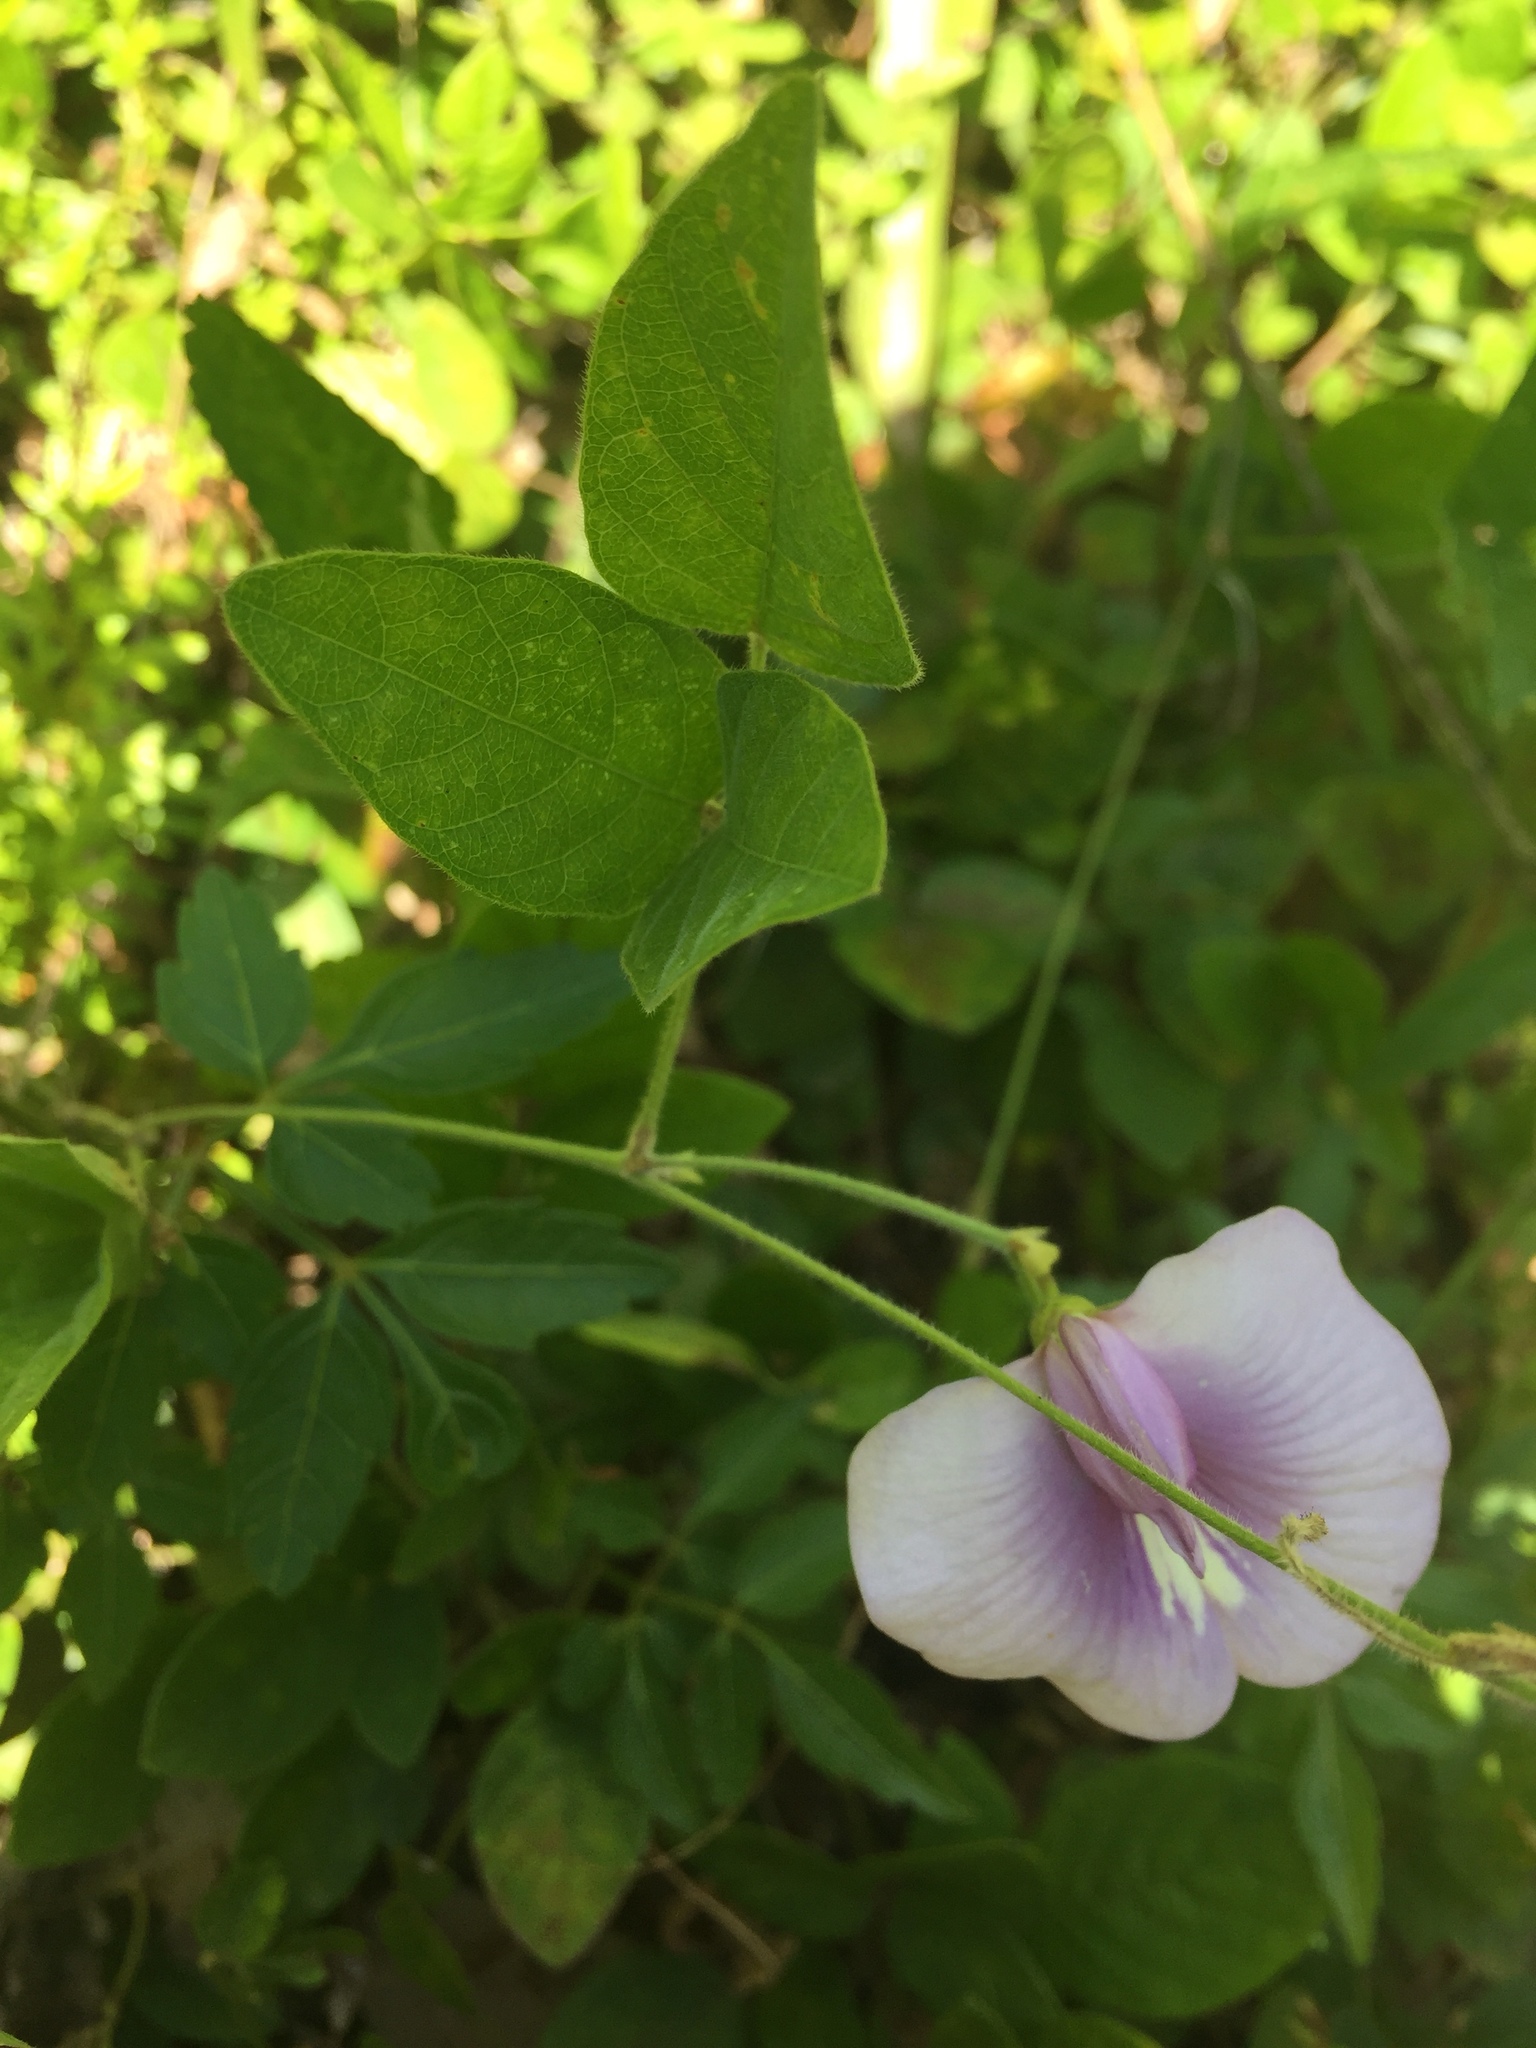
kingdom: Plantae
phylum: Tracheophyta
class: Magnoliopsida
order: Fabales
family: Fabaceae
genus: Centrosema
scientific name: Centrosema virginianum
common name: Butterfly-pea
